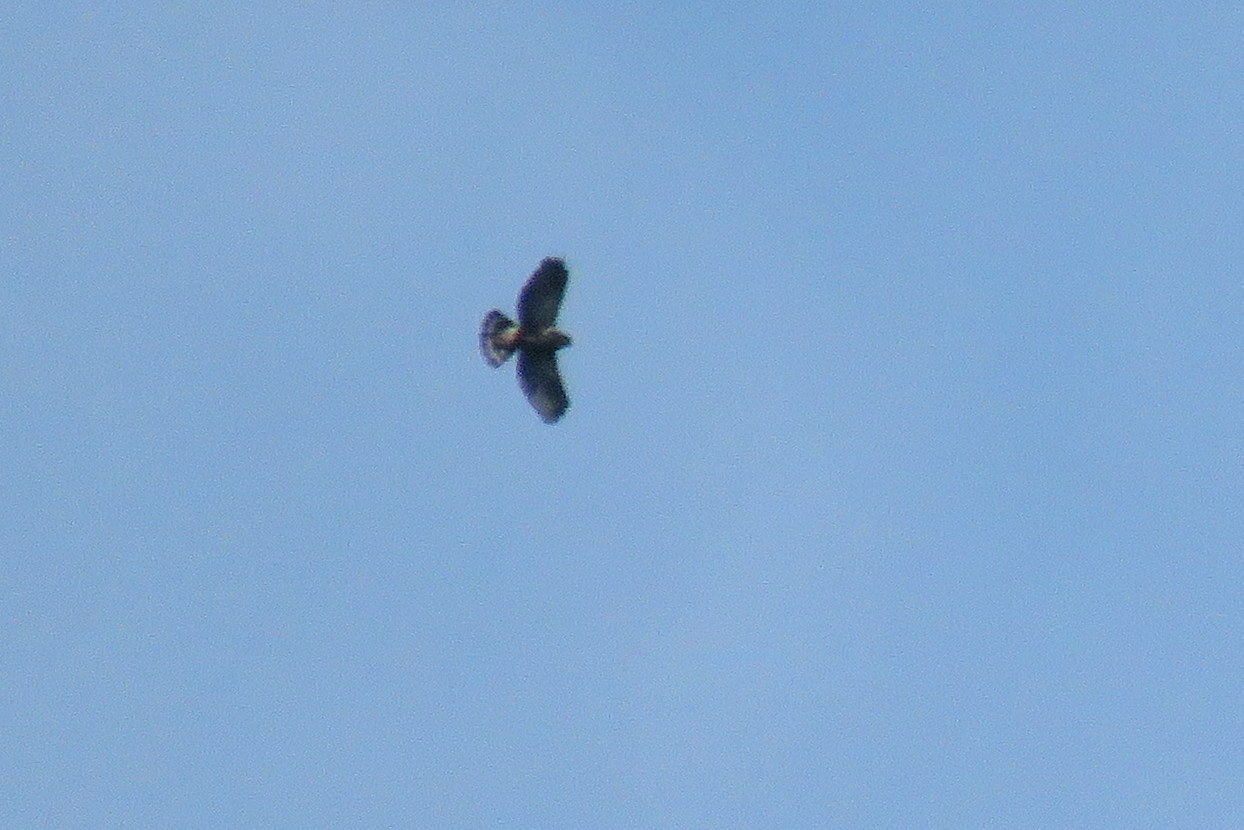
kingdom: Animalia
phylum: Chordata
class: Aves
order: Accipitriformes
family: Accipitridae
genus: Percnohierax
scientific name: Percnohierax leucorrhous
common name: White-rumped hawk
